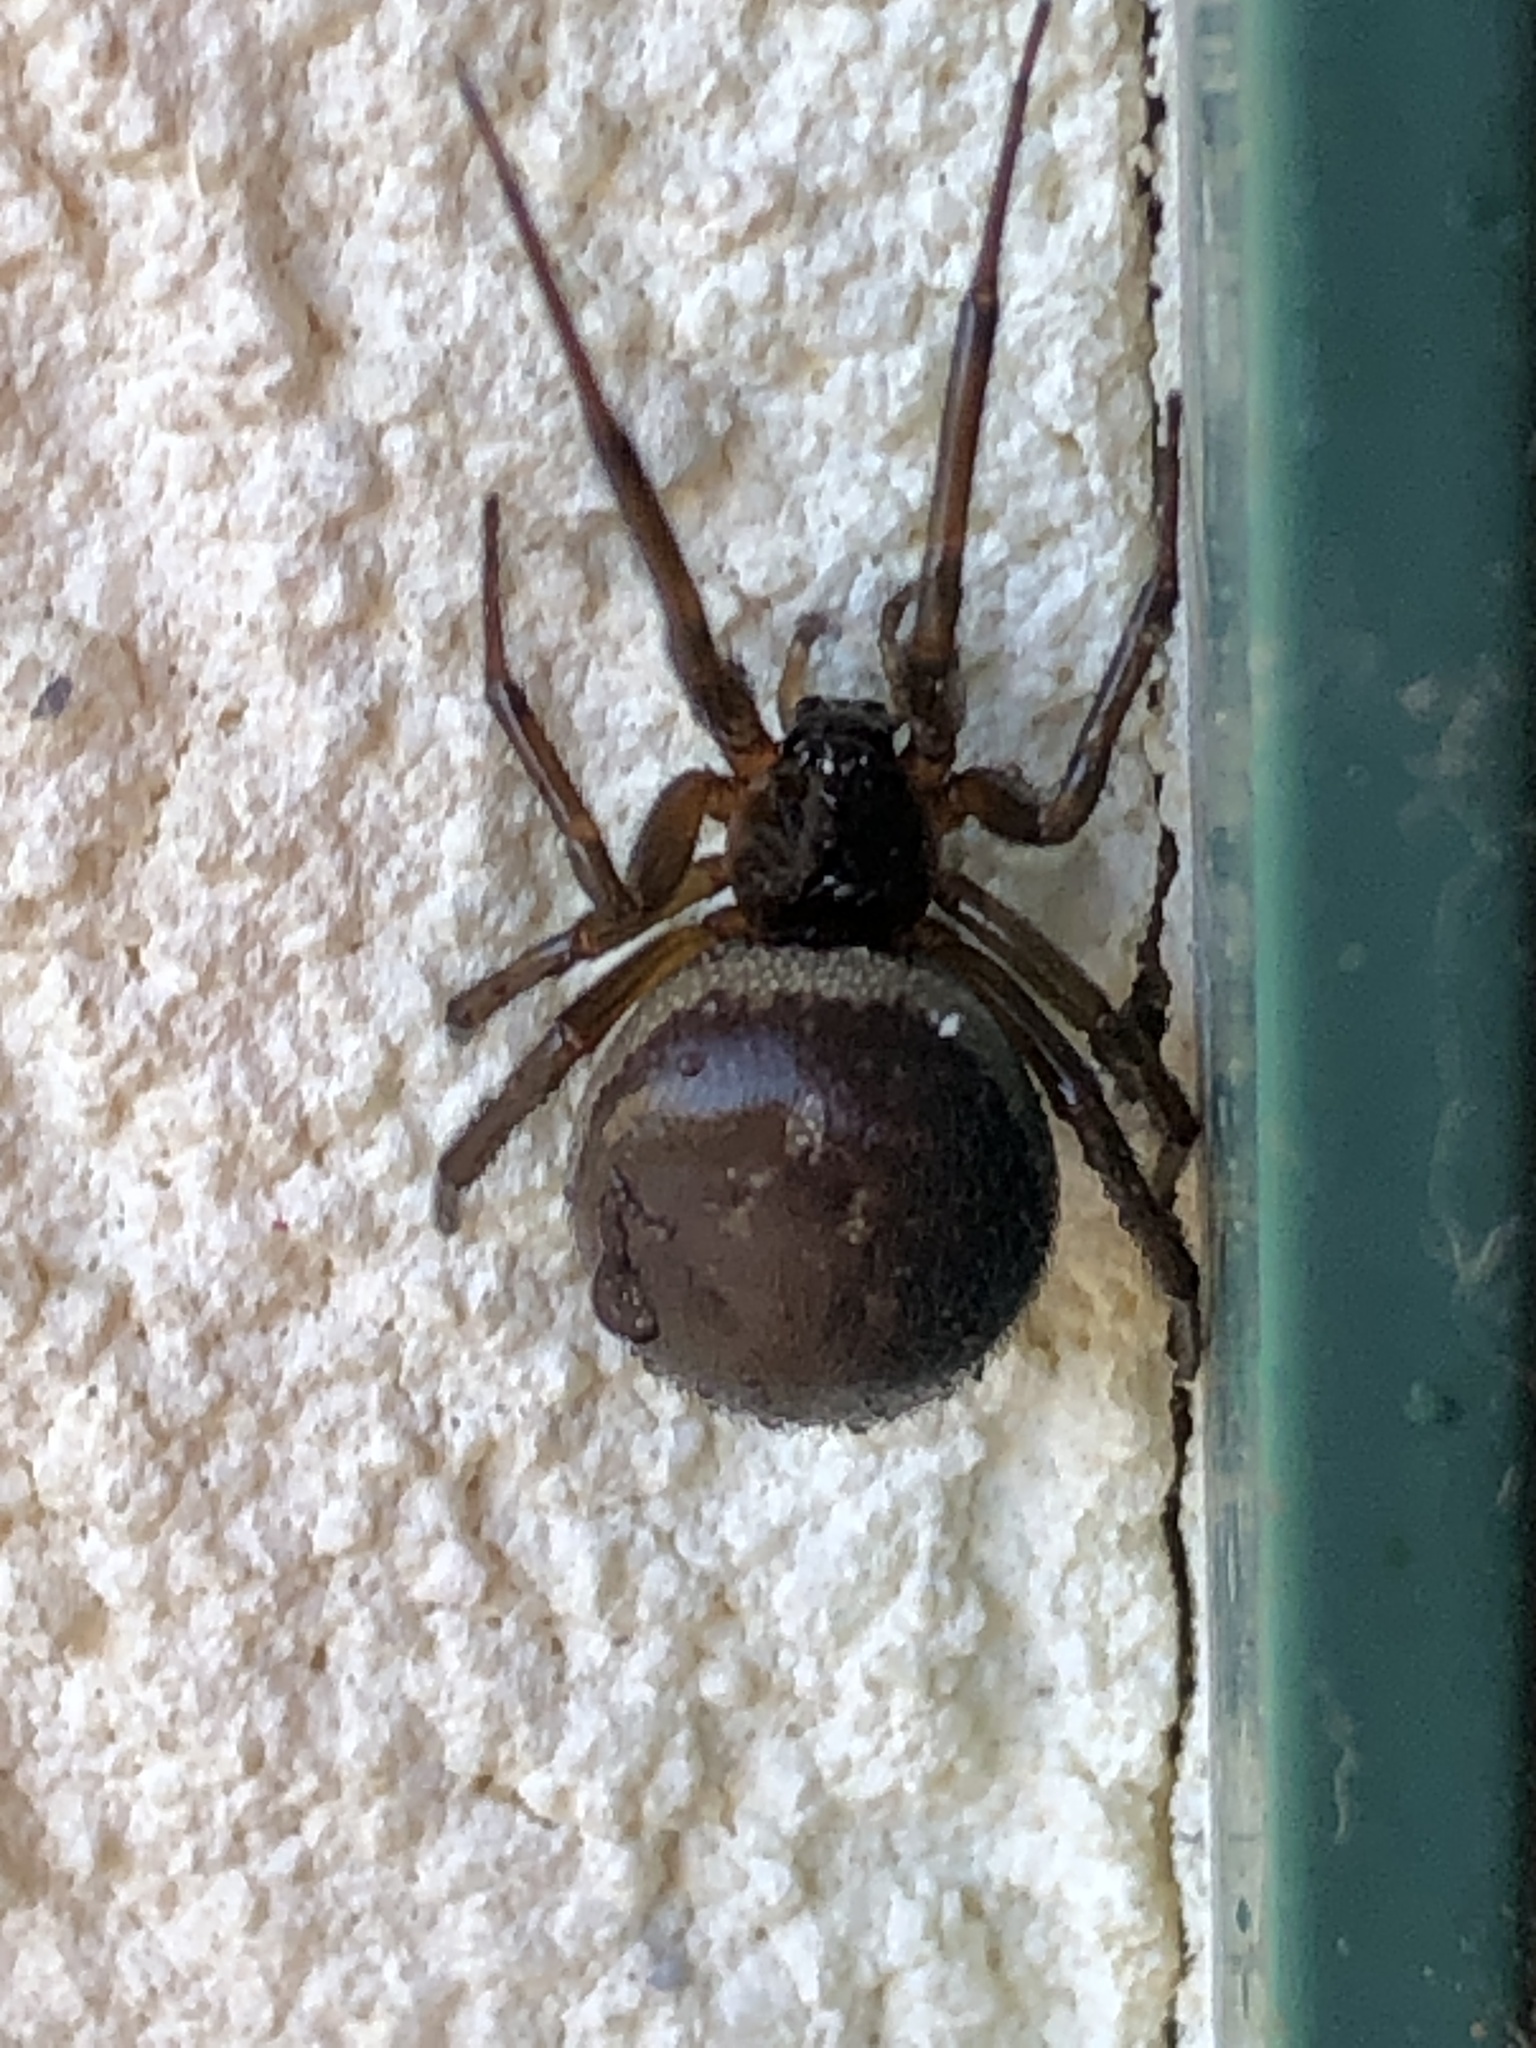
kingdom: Animalia
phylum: Arthropoda
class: Arachnida
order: Araneae
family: Theridiidae
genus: Steatoda
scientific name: Steatoda nobilis
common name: Cobweb weaver
